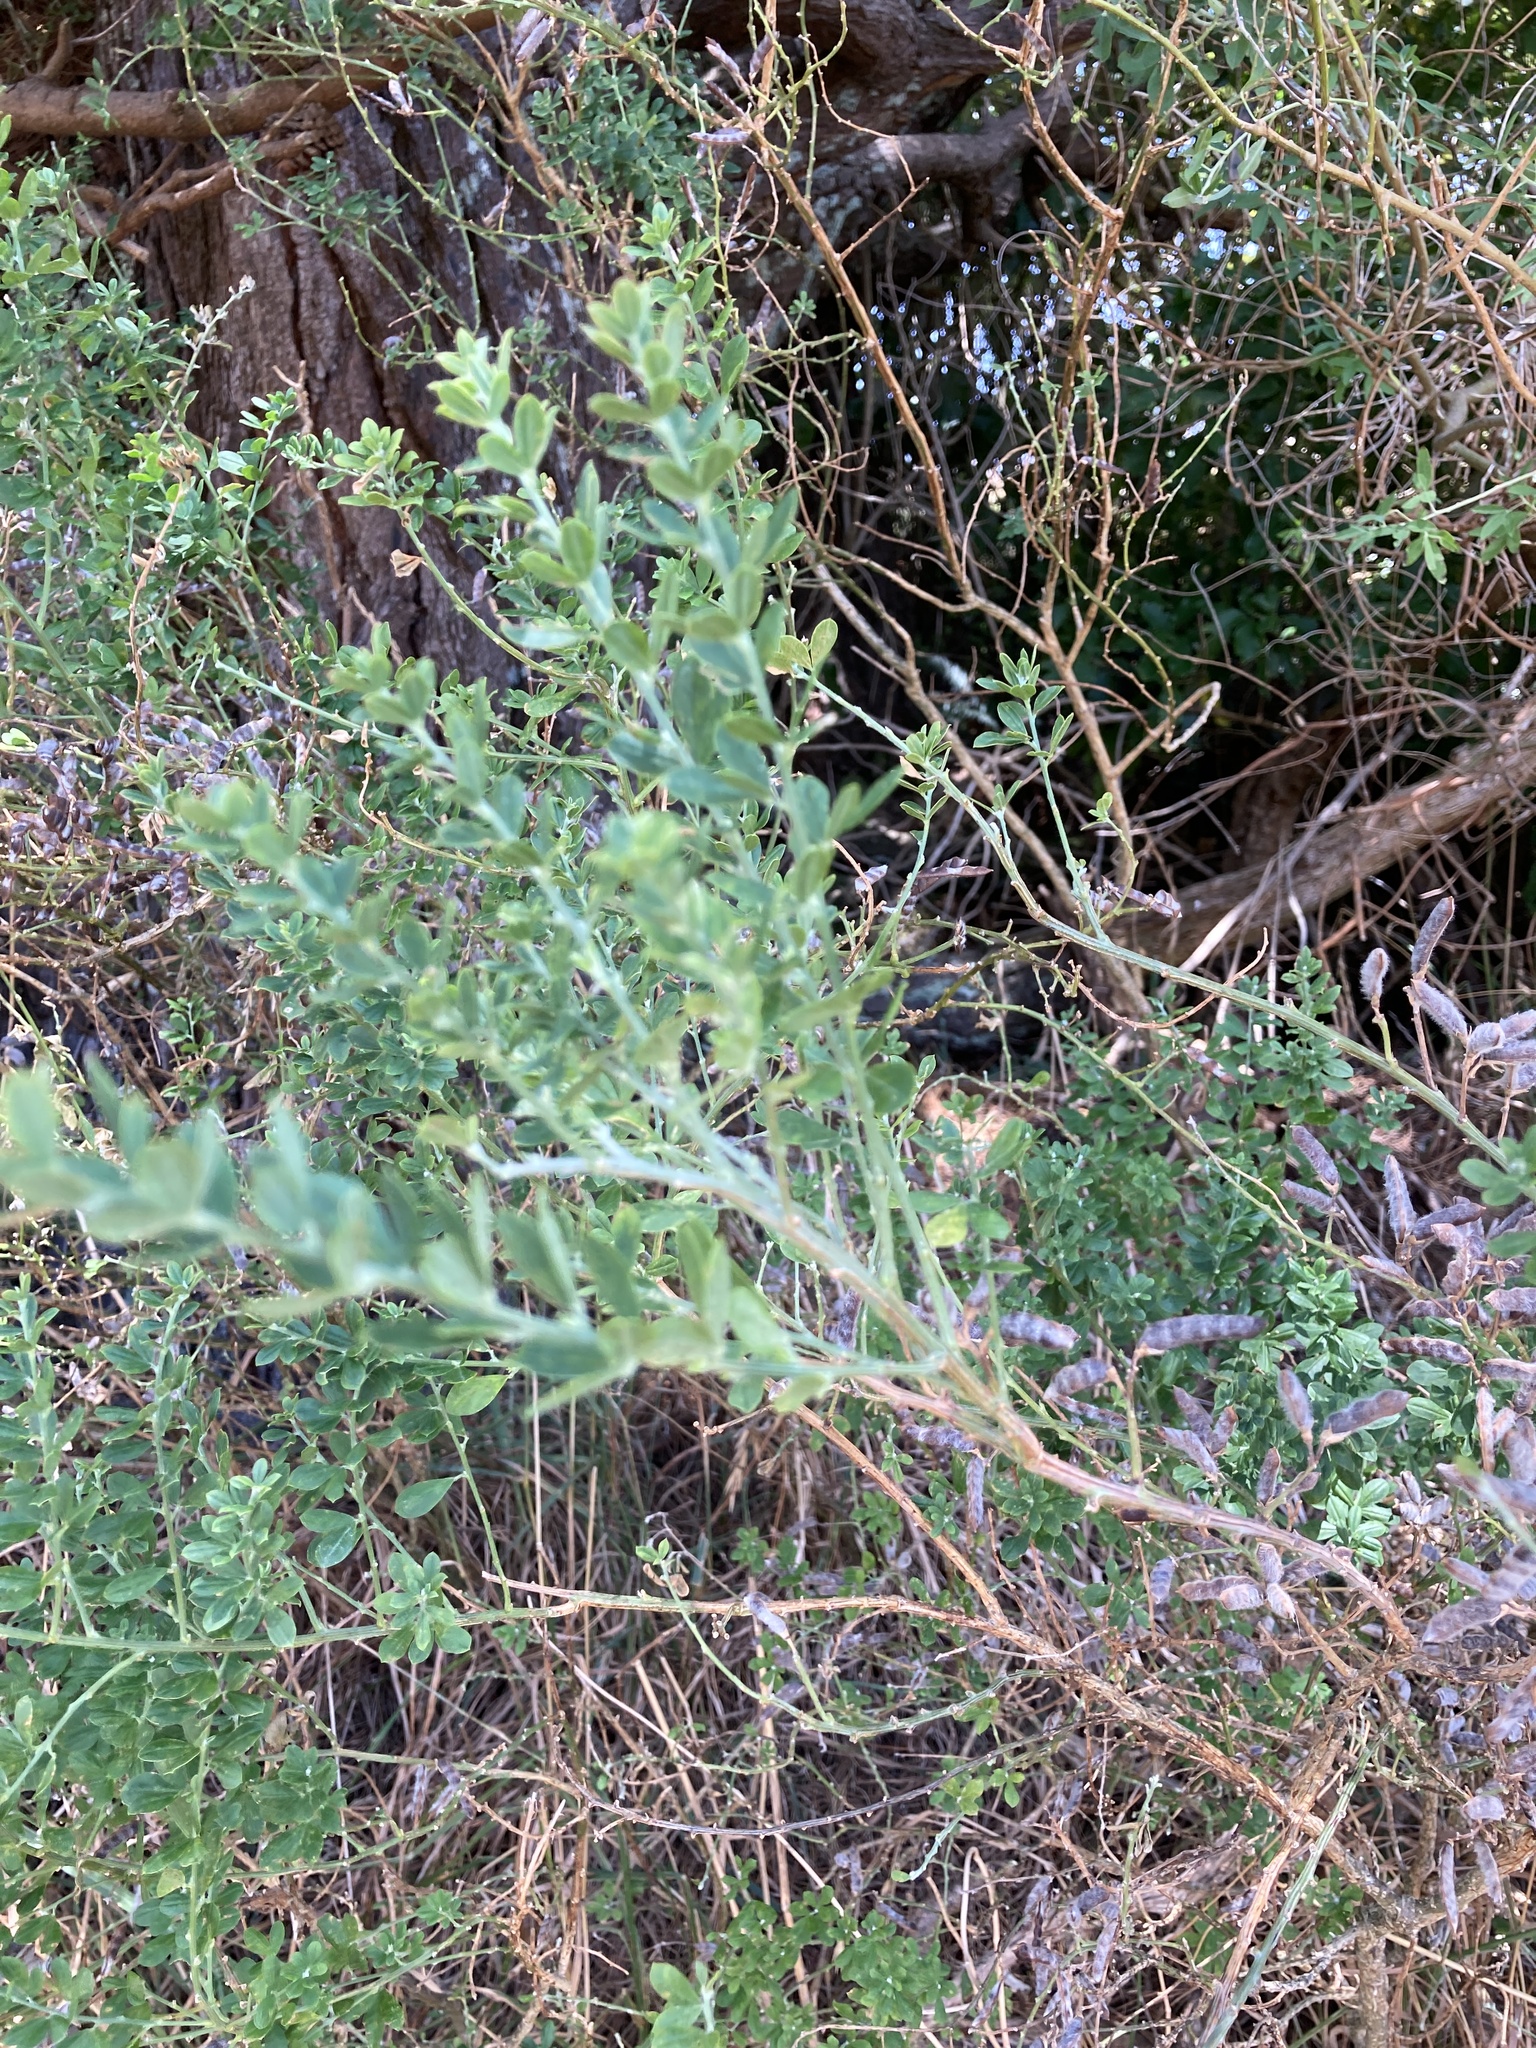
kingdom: Plantae
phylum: Tracheophyta
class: Magnoliopsida
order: Fabales
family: Fabaceae
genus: Genista
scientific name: Genista monspessulana
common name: Montpellier broom
